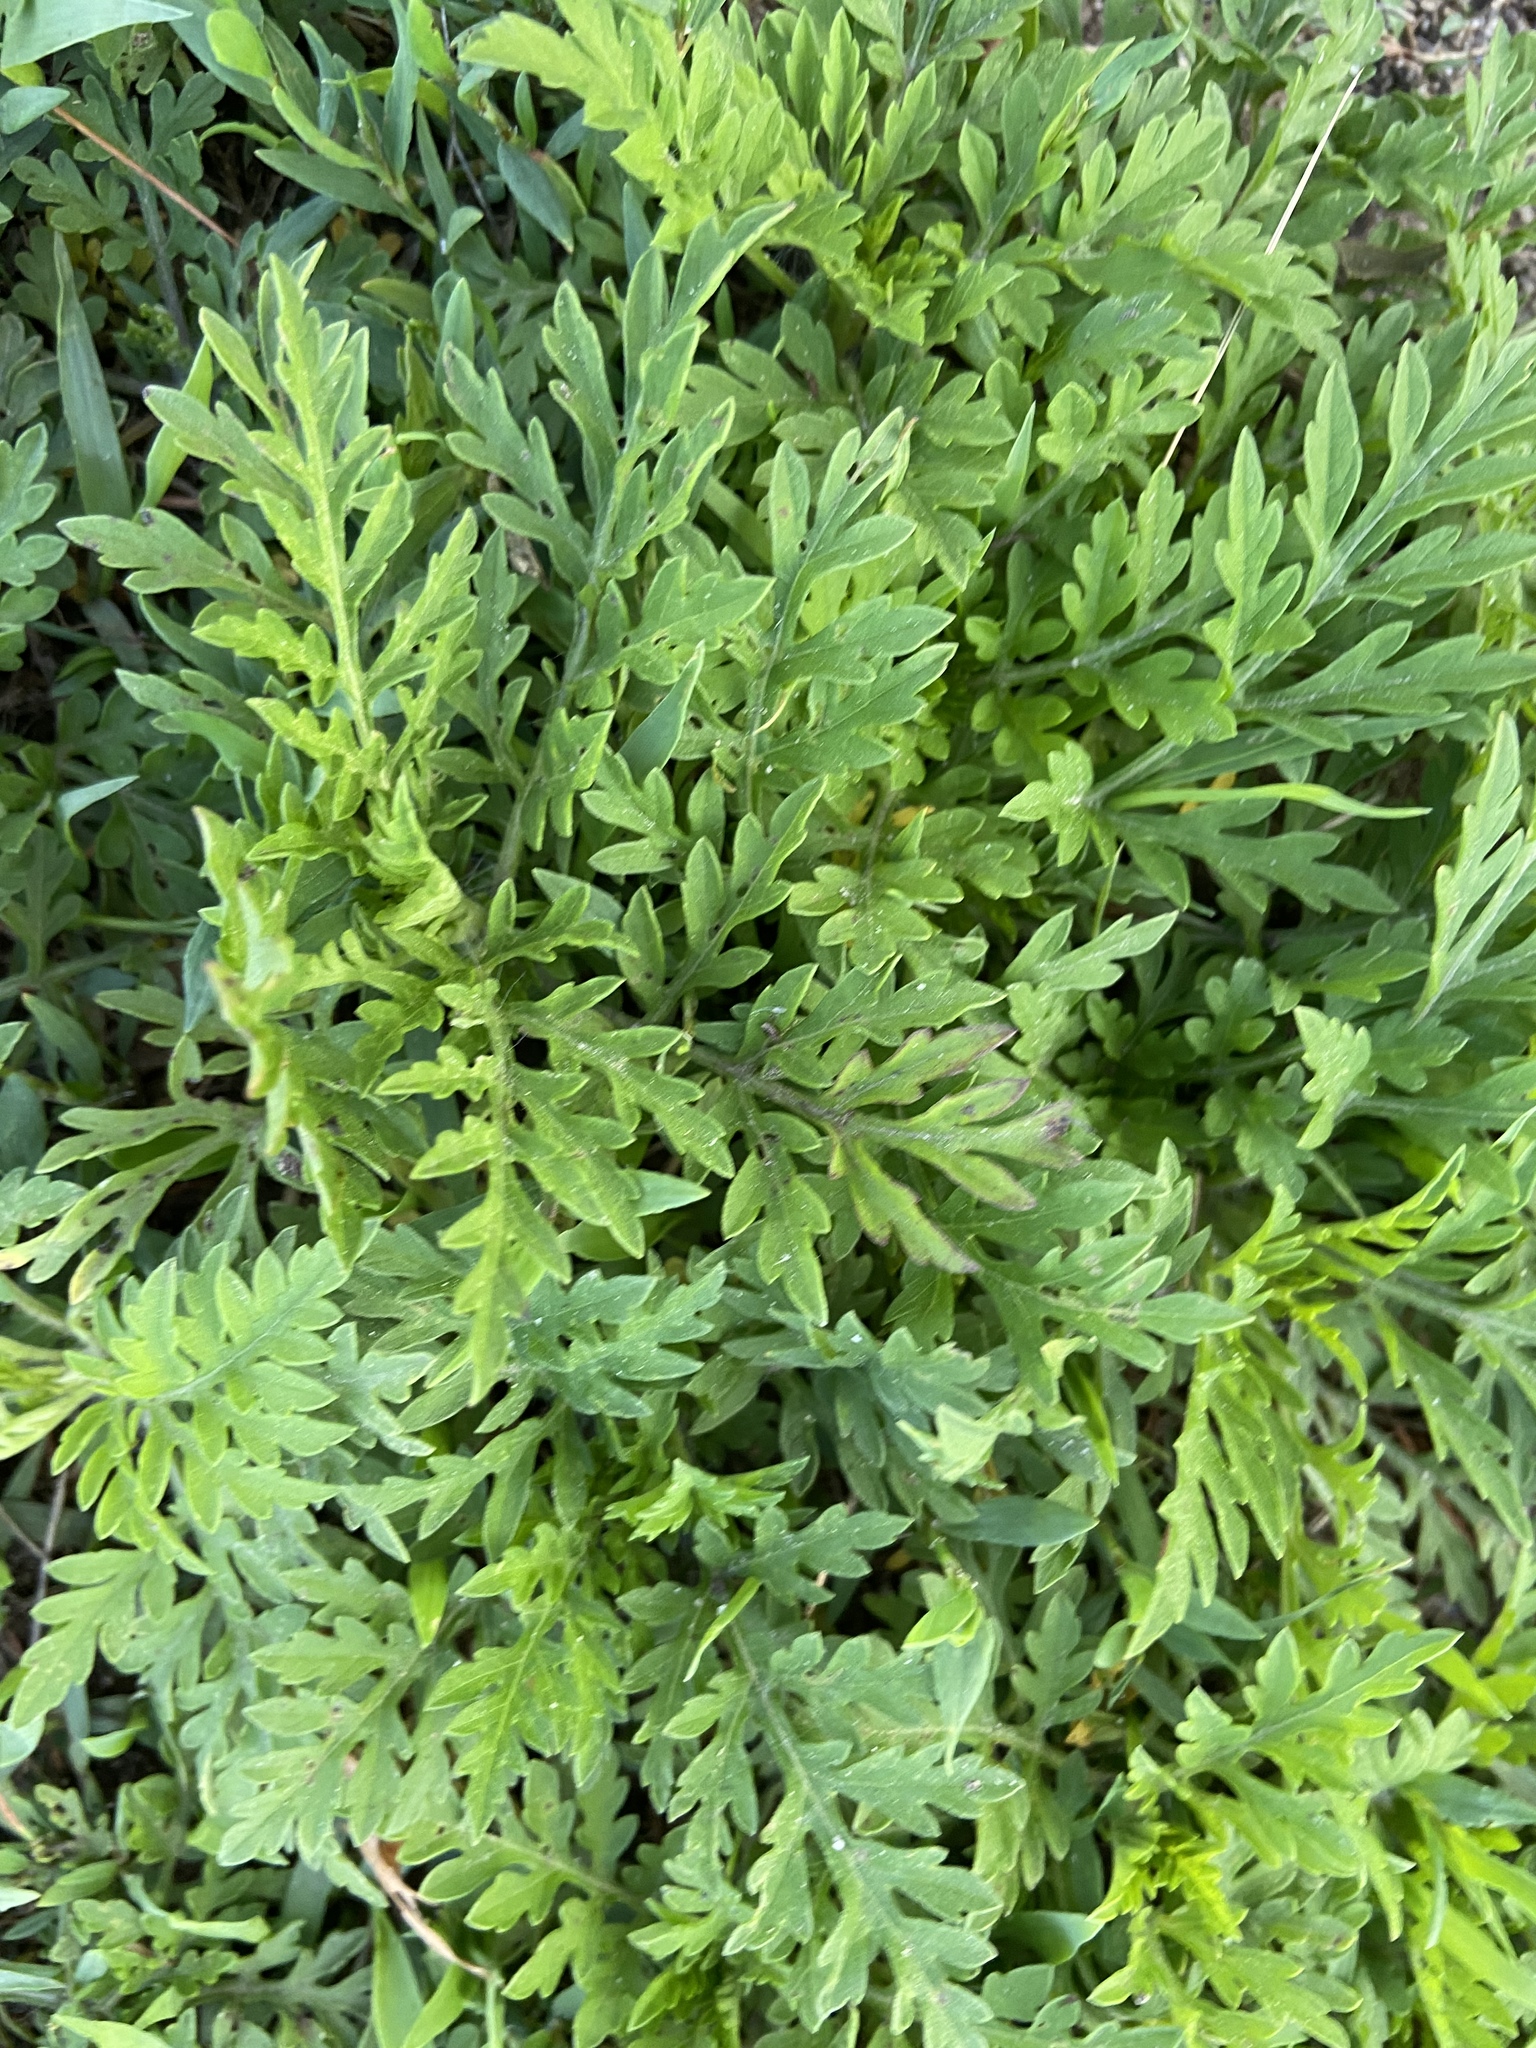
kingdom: Plantae
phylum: Tracheophyta
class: Magnoliopsida
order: Asterales
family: Asteraceae
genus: Ambrosia
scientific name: Ambrosia artemisiifolia
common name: Annual ragweed
